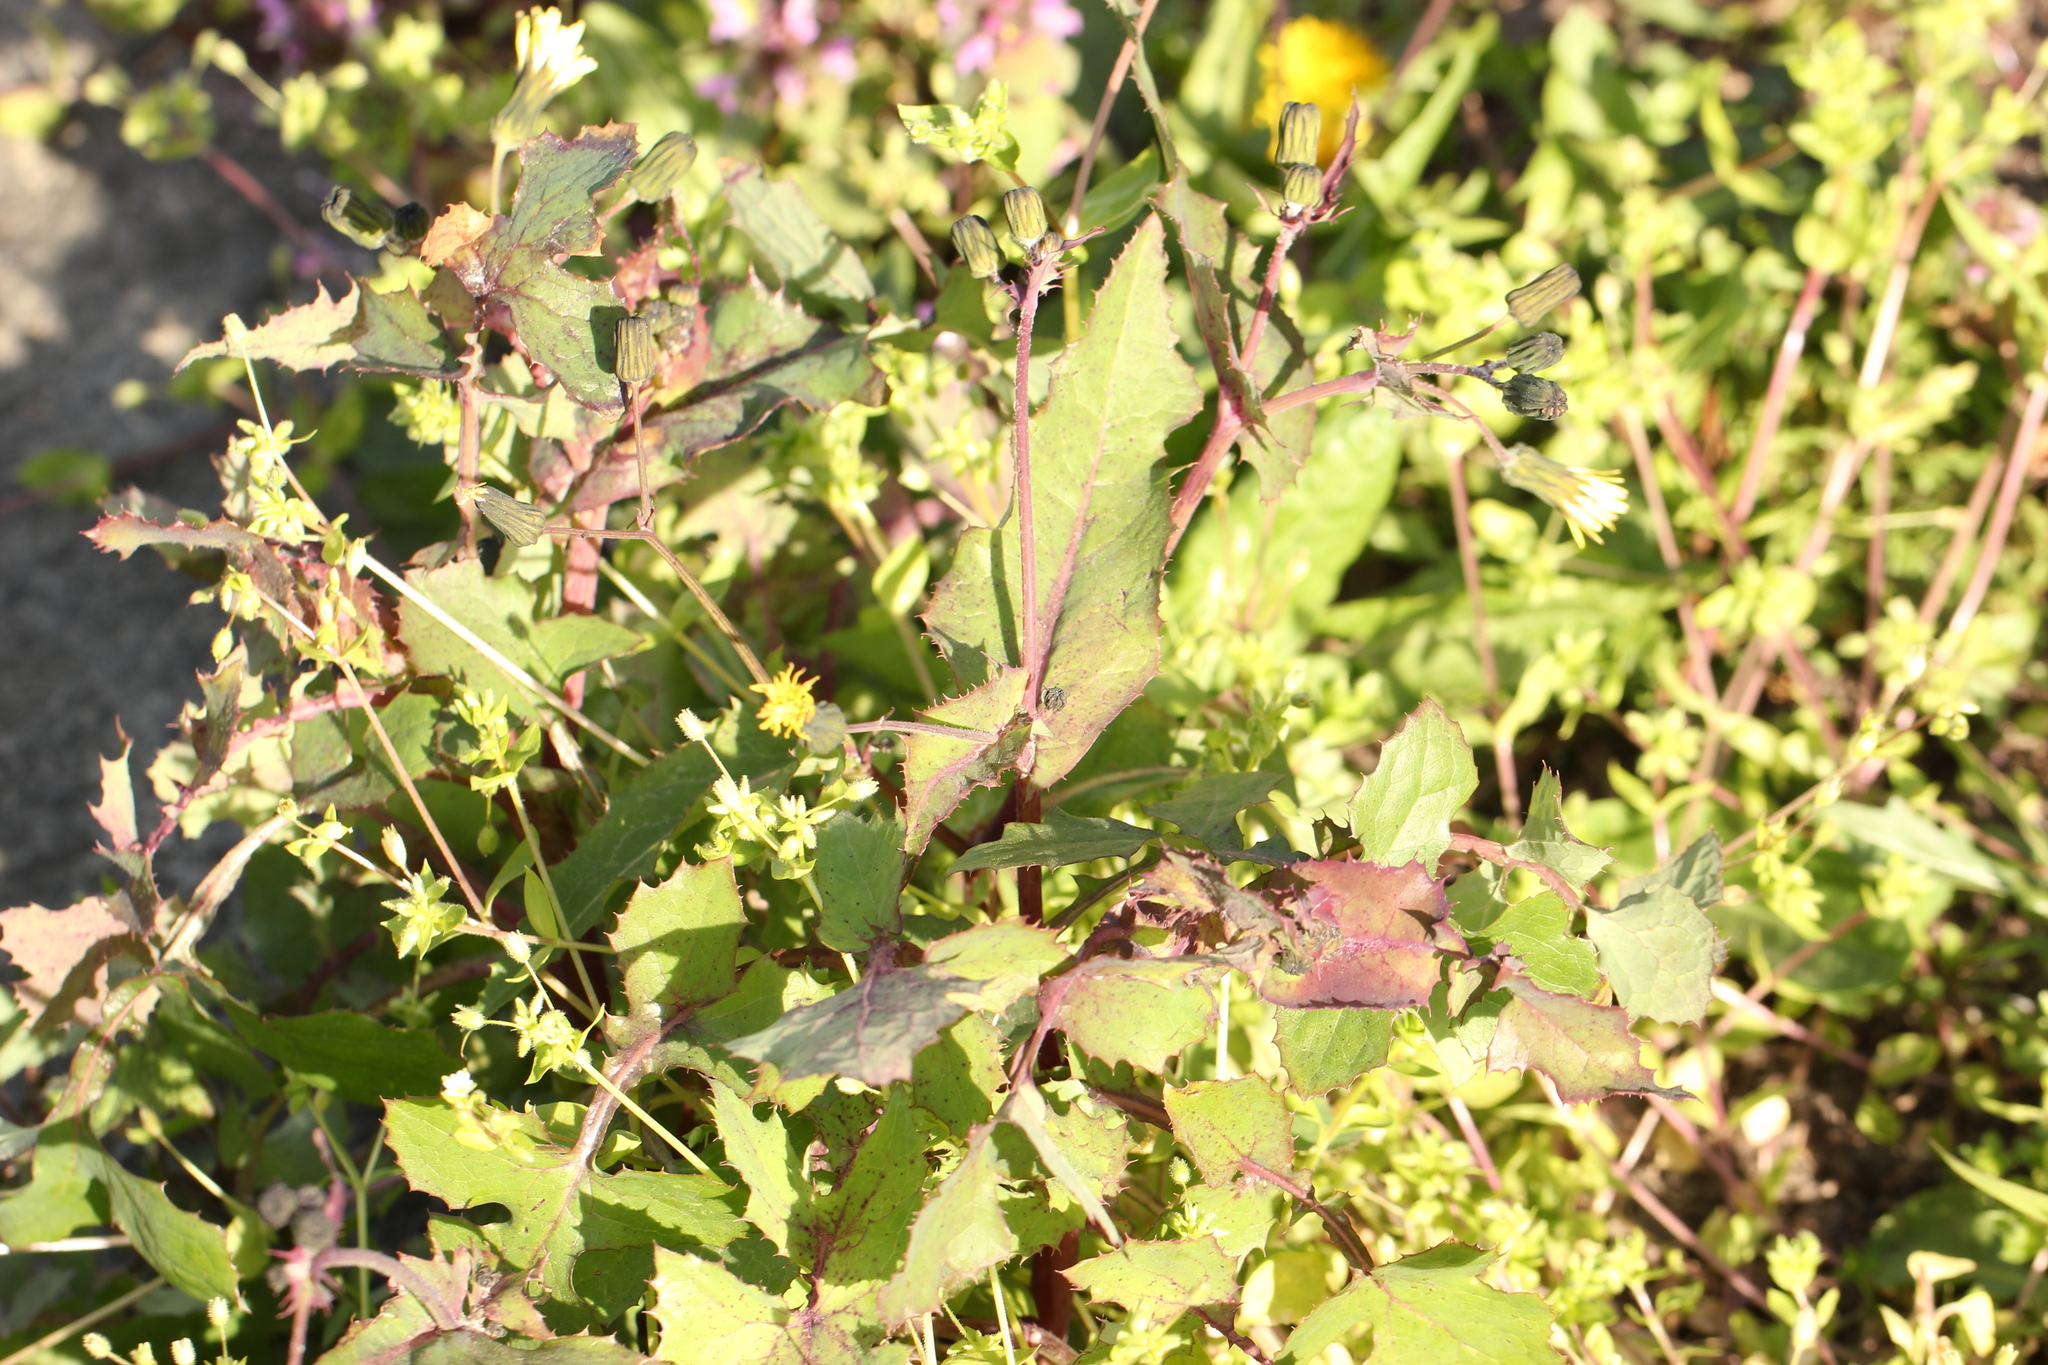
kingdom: Plantae
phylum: Tracheophyta
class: Magnoliopsida
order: Asterales
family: Asteraceae
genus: Sonchus
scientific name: Sonchus oleraceus
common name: Common sowthistle
